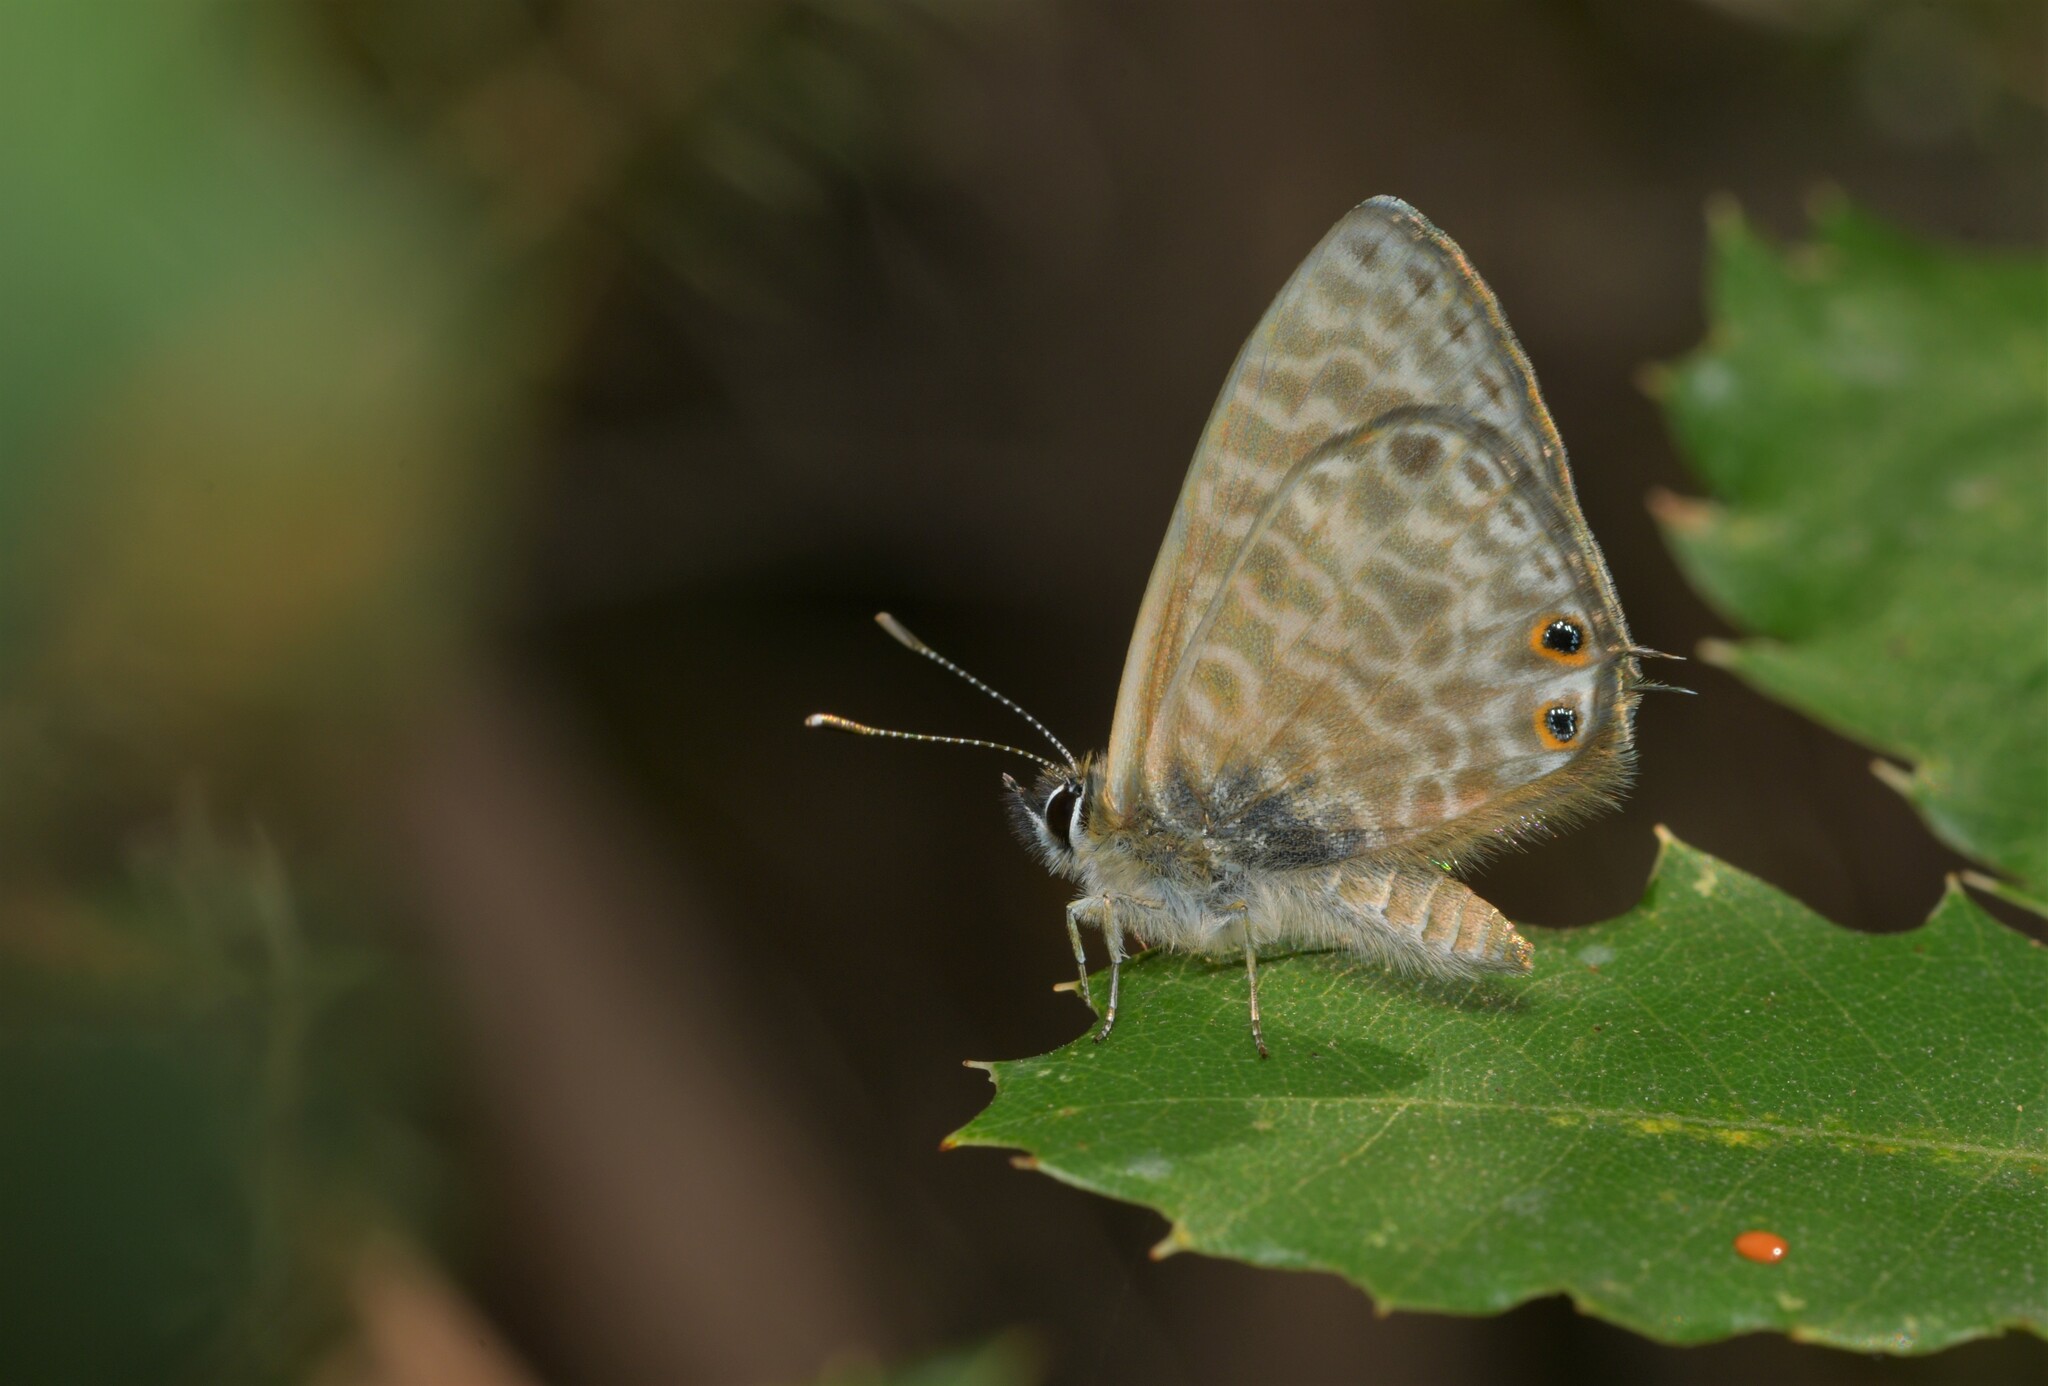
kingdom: Animalia
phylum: Arthropoda
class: Insecta
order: Lepidoptera
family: Lycaenidae
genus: Leptotes
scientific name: Leptotes pirithous
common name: Lang's short-tailed blue
